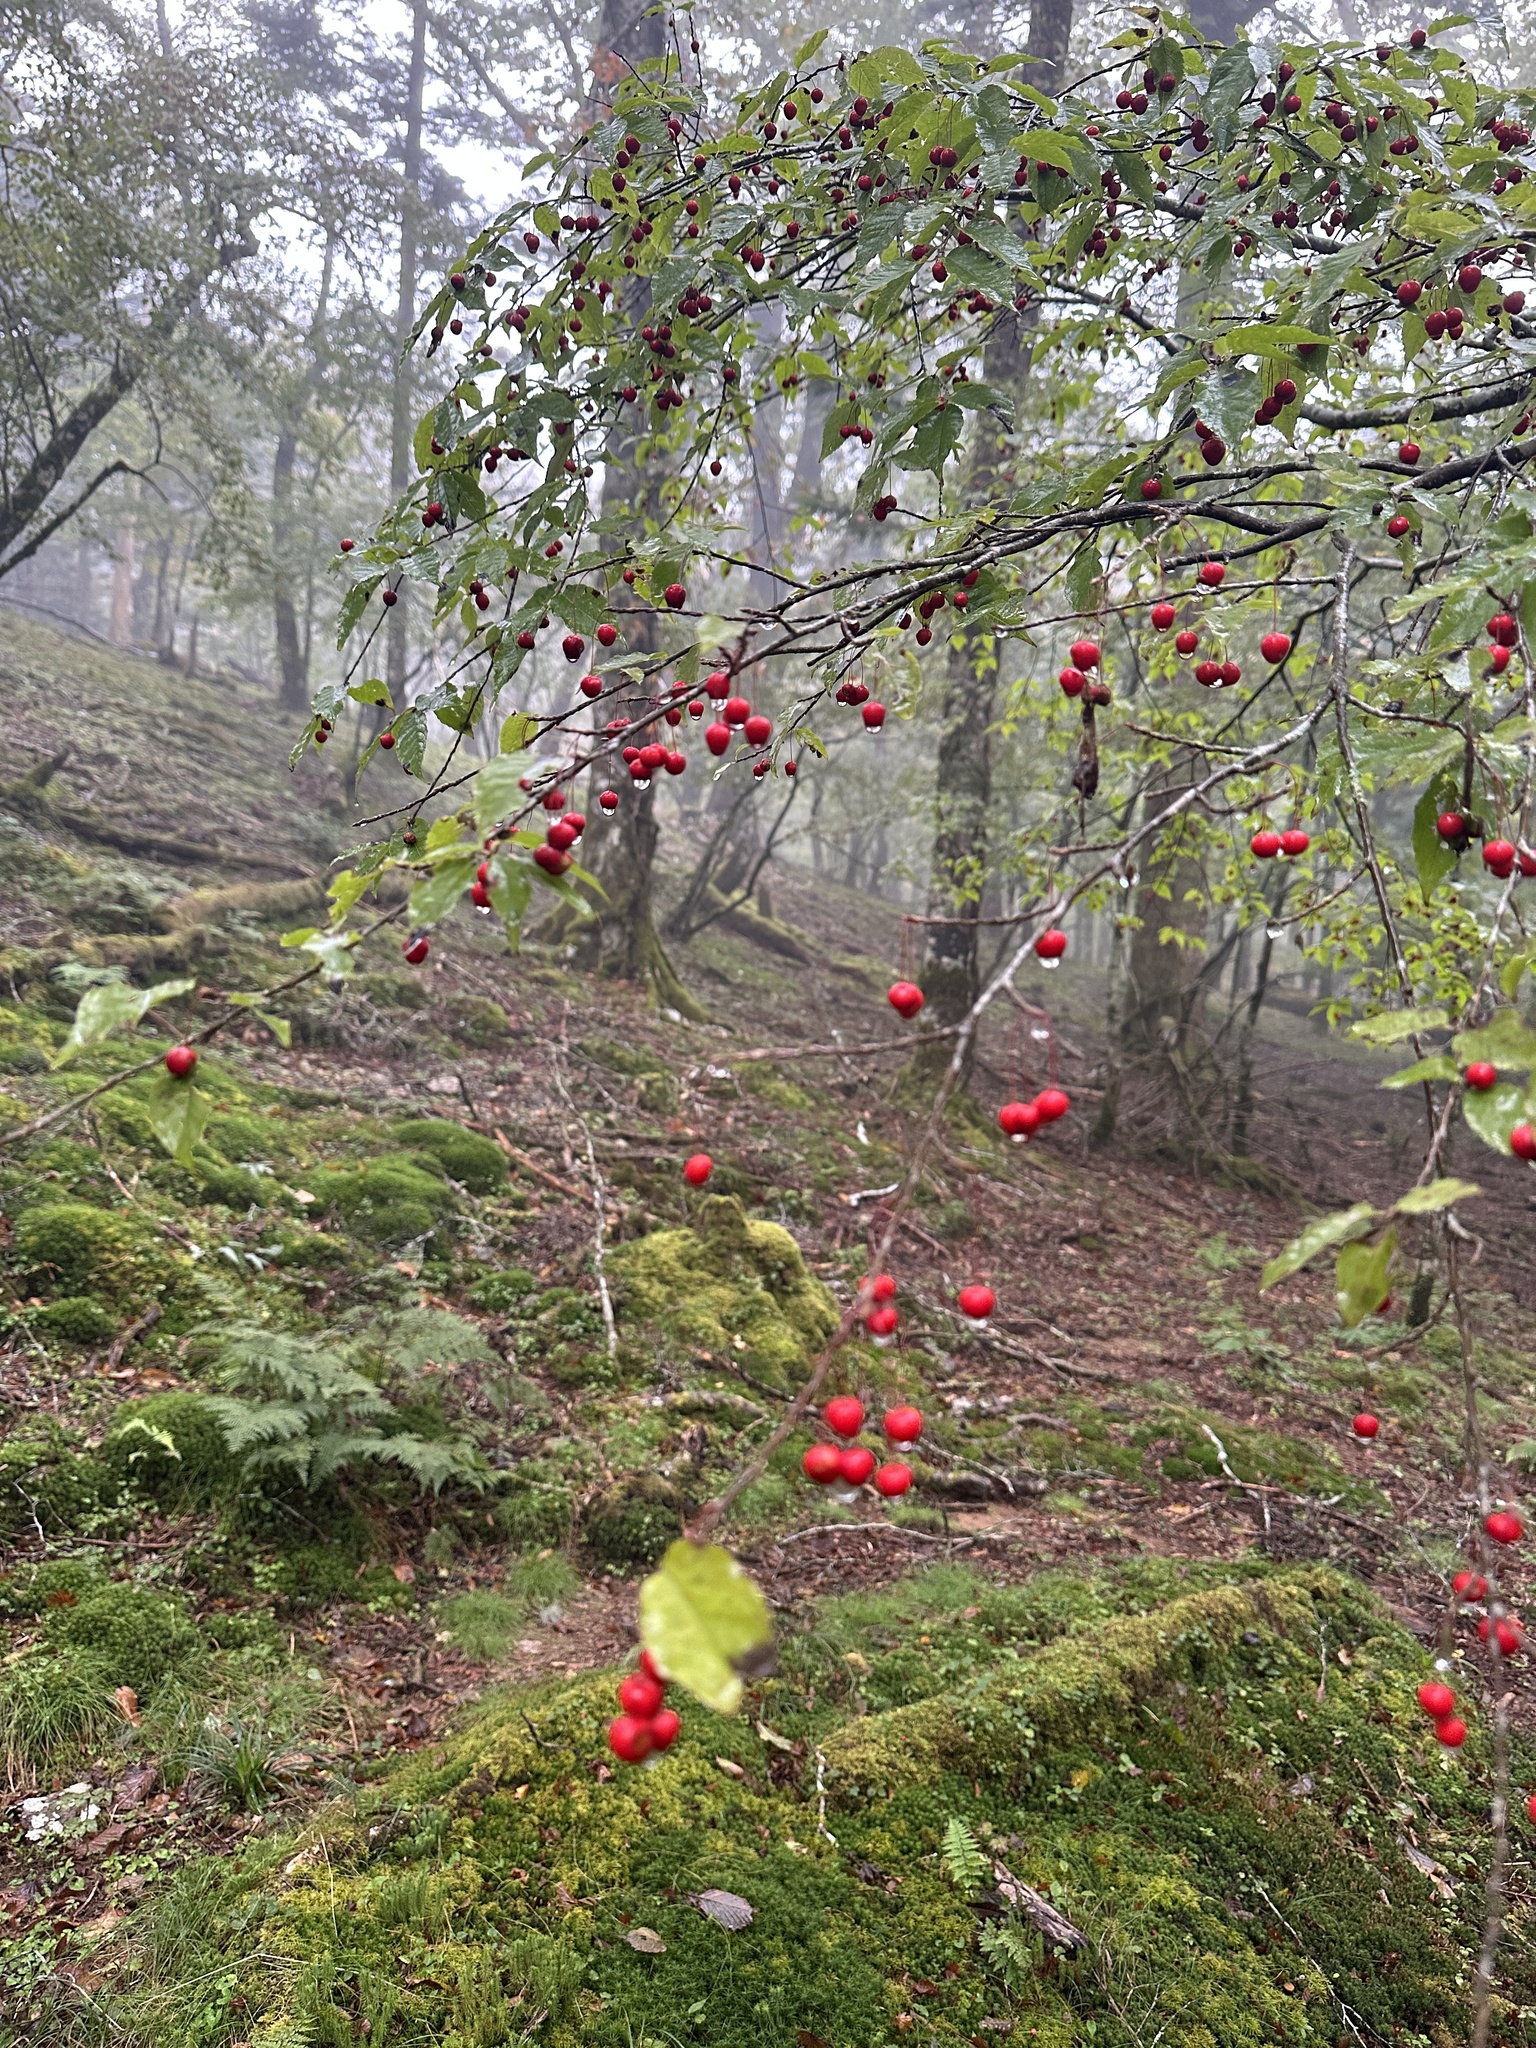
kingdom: Plantae
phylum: Tracheophyta
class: Magnoliopsida
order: Aquifoliales
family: Aquifoliaceae
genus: Ilex
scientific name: Ilex geniculata
